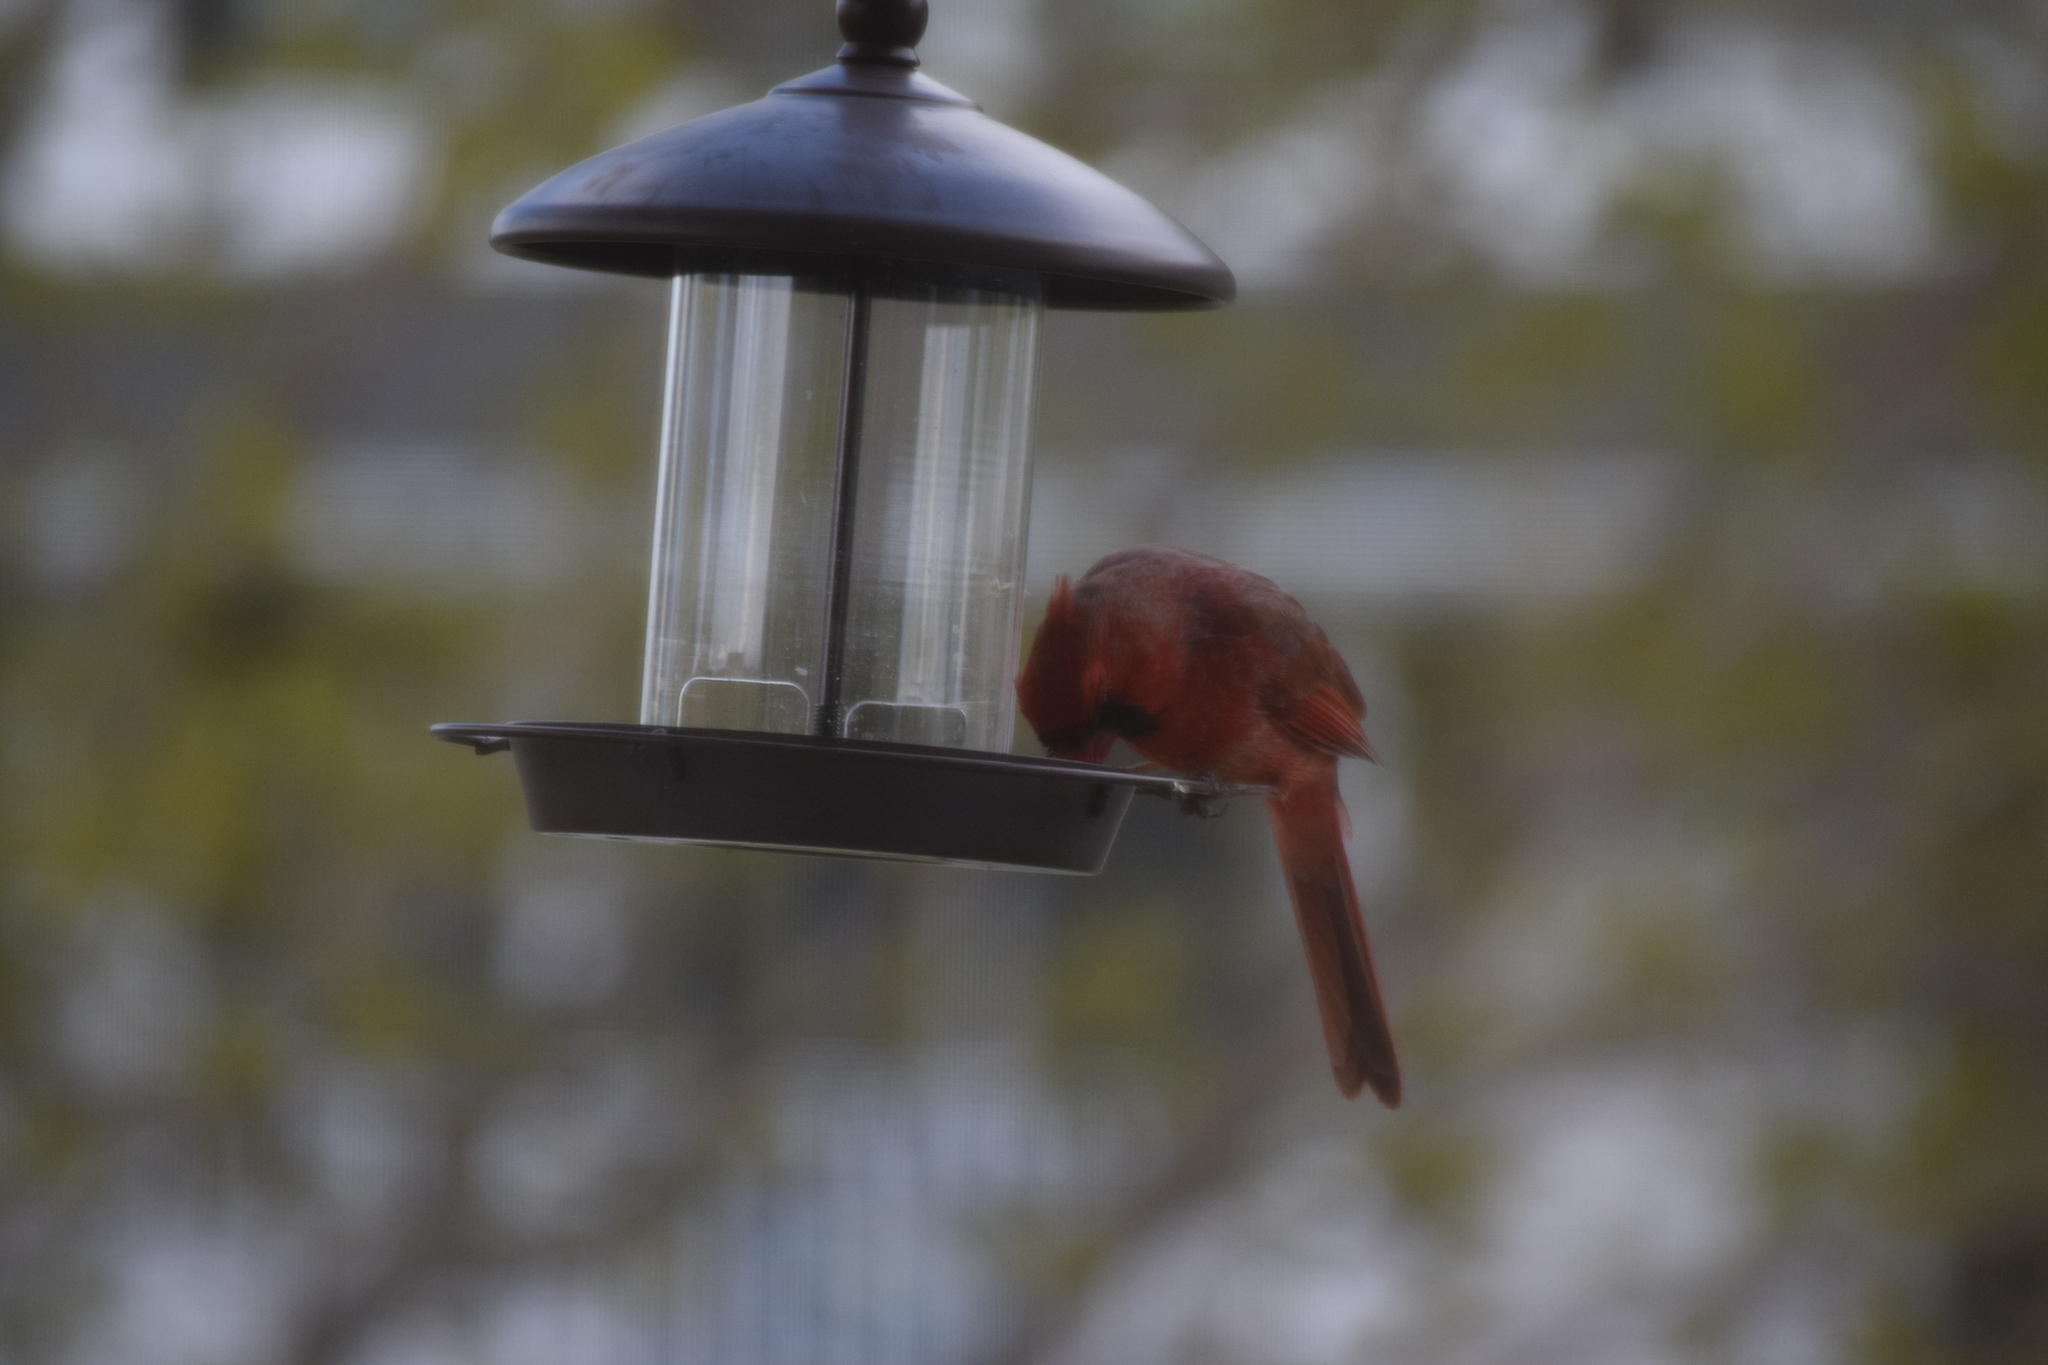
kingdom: Animalia
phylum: Chordata
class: Aves
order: Passeriformes
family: Cardinalidae
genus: Cardinalis
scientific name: Cardinalis cardinalis
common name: Northern cardinal
